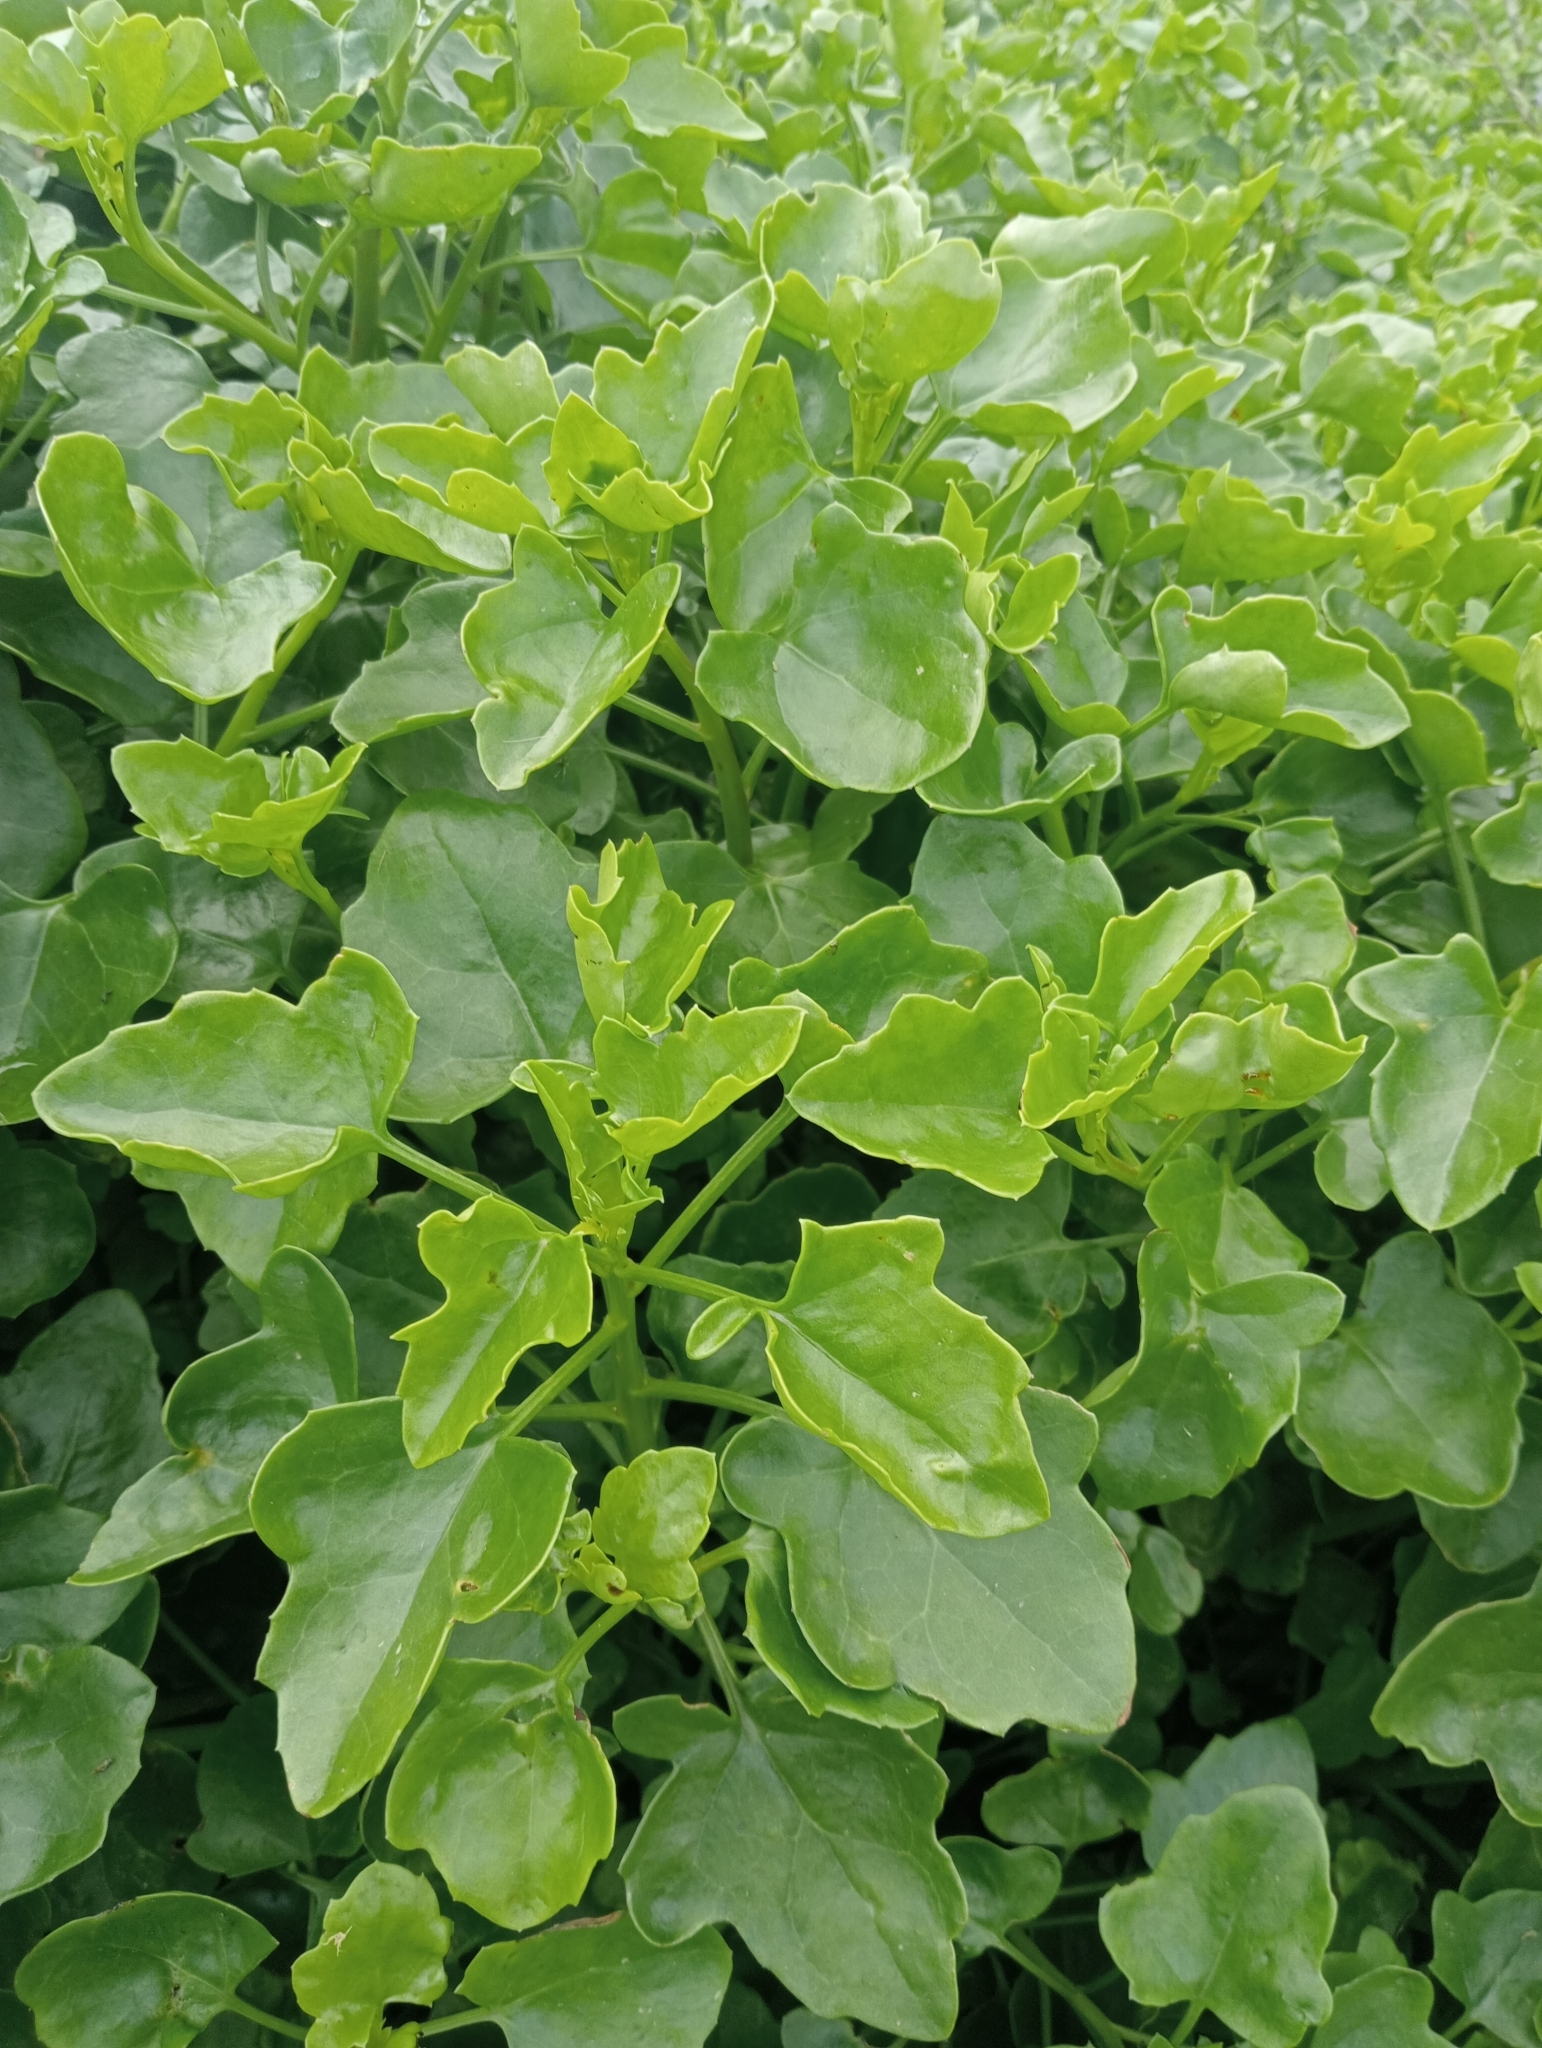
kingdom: Plantae
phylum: Tracheophyta
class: Magnoliopsida
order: Asterales
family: Asteraceae
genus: Senecio
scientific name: Senecio angulatus
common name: Climbing groundsel
